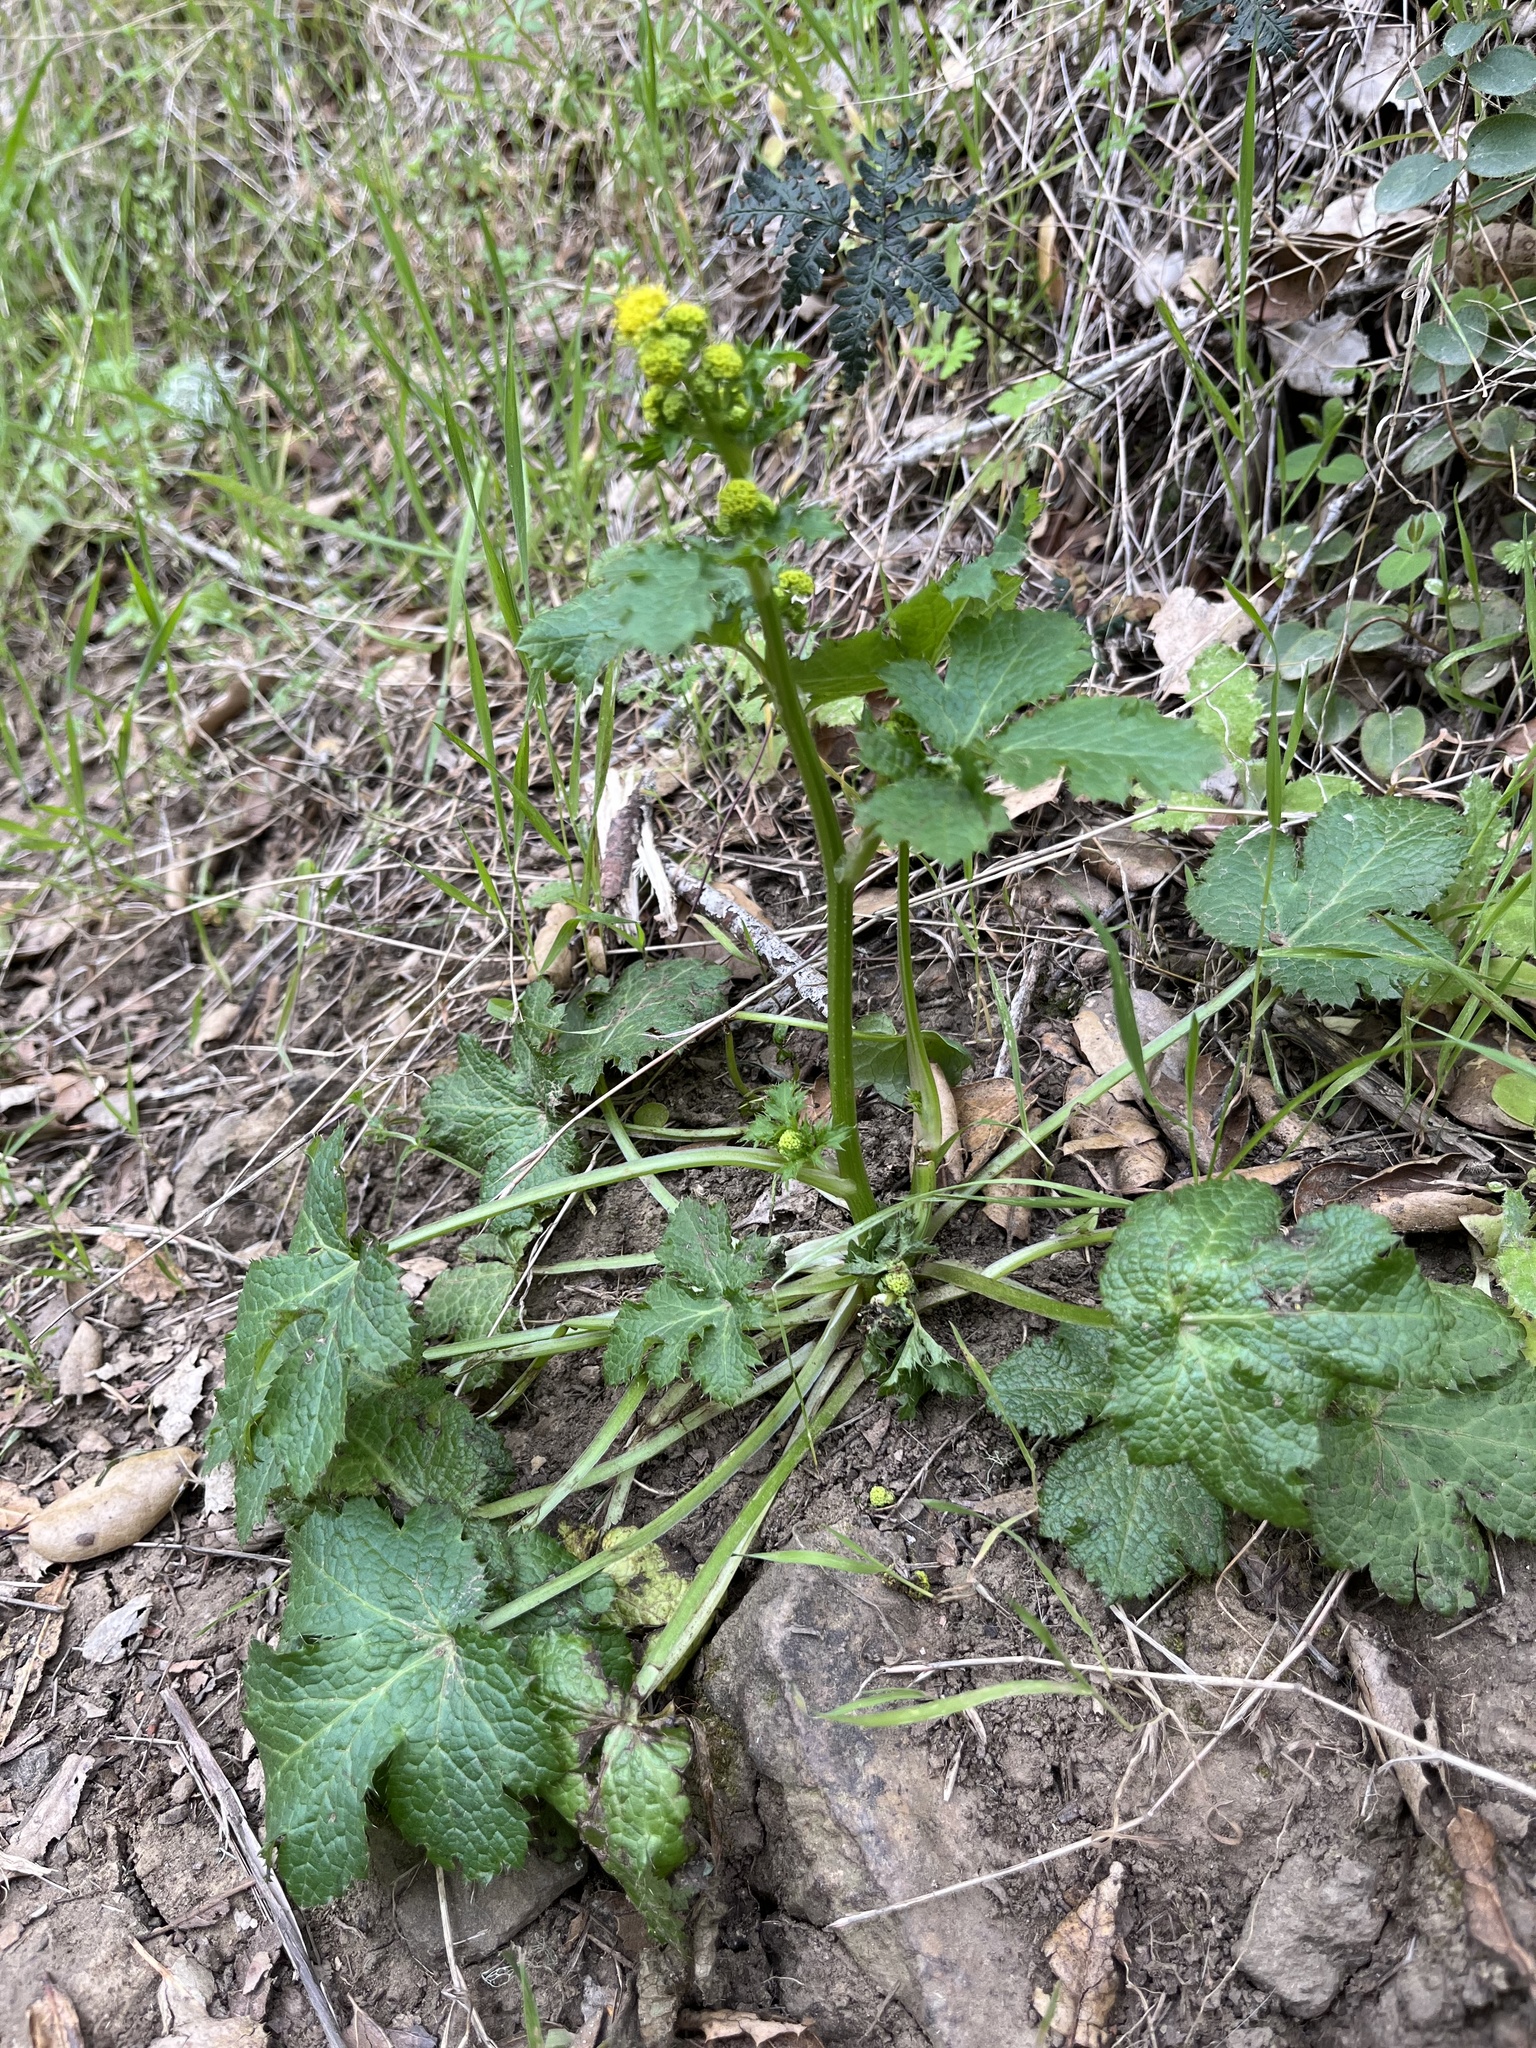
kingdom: Plantae
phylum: Tracheophyta
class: Magnoliopsida
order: Apiales
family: Apiaceae
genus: Sanicula
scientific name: Sanicula crassicaulis
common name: Western snakeroot
